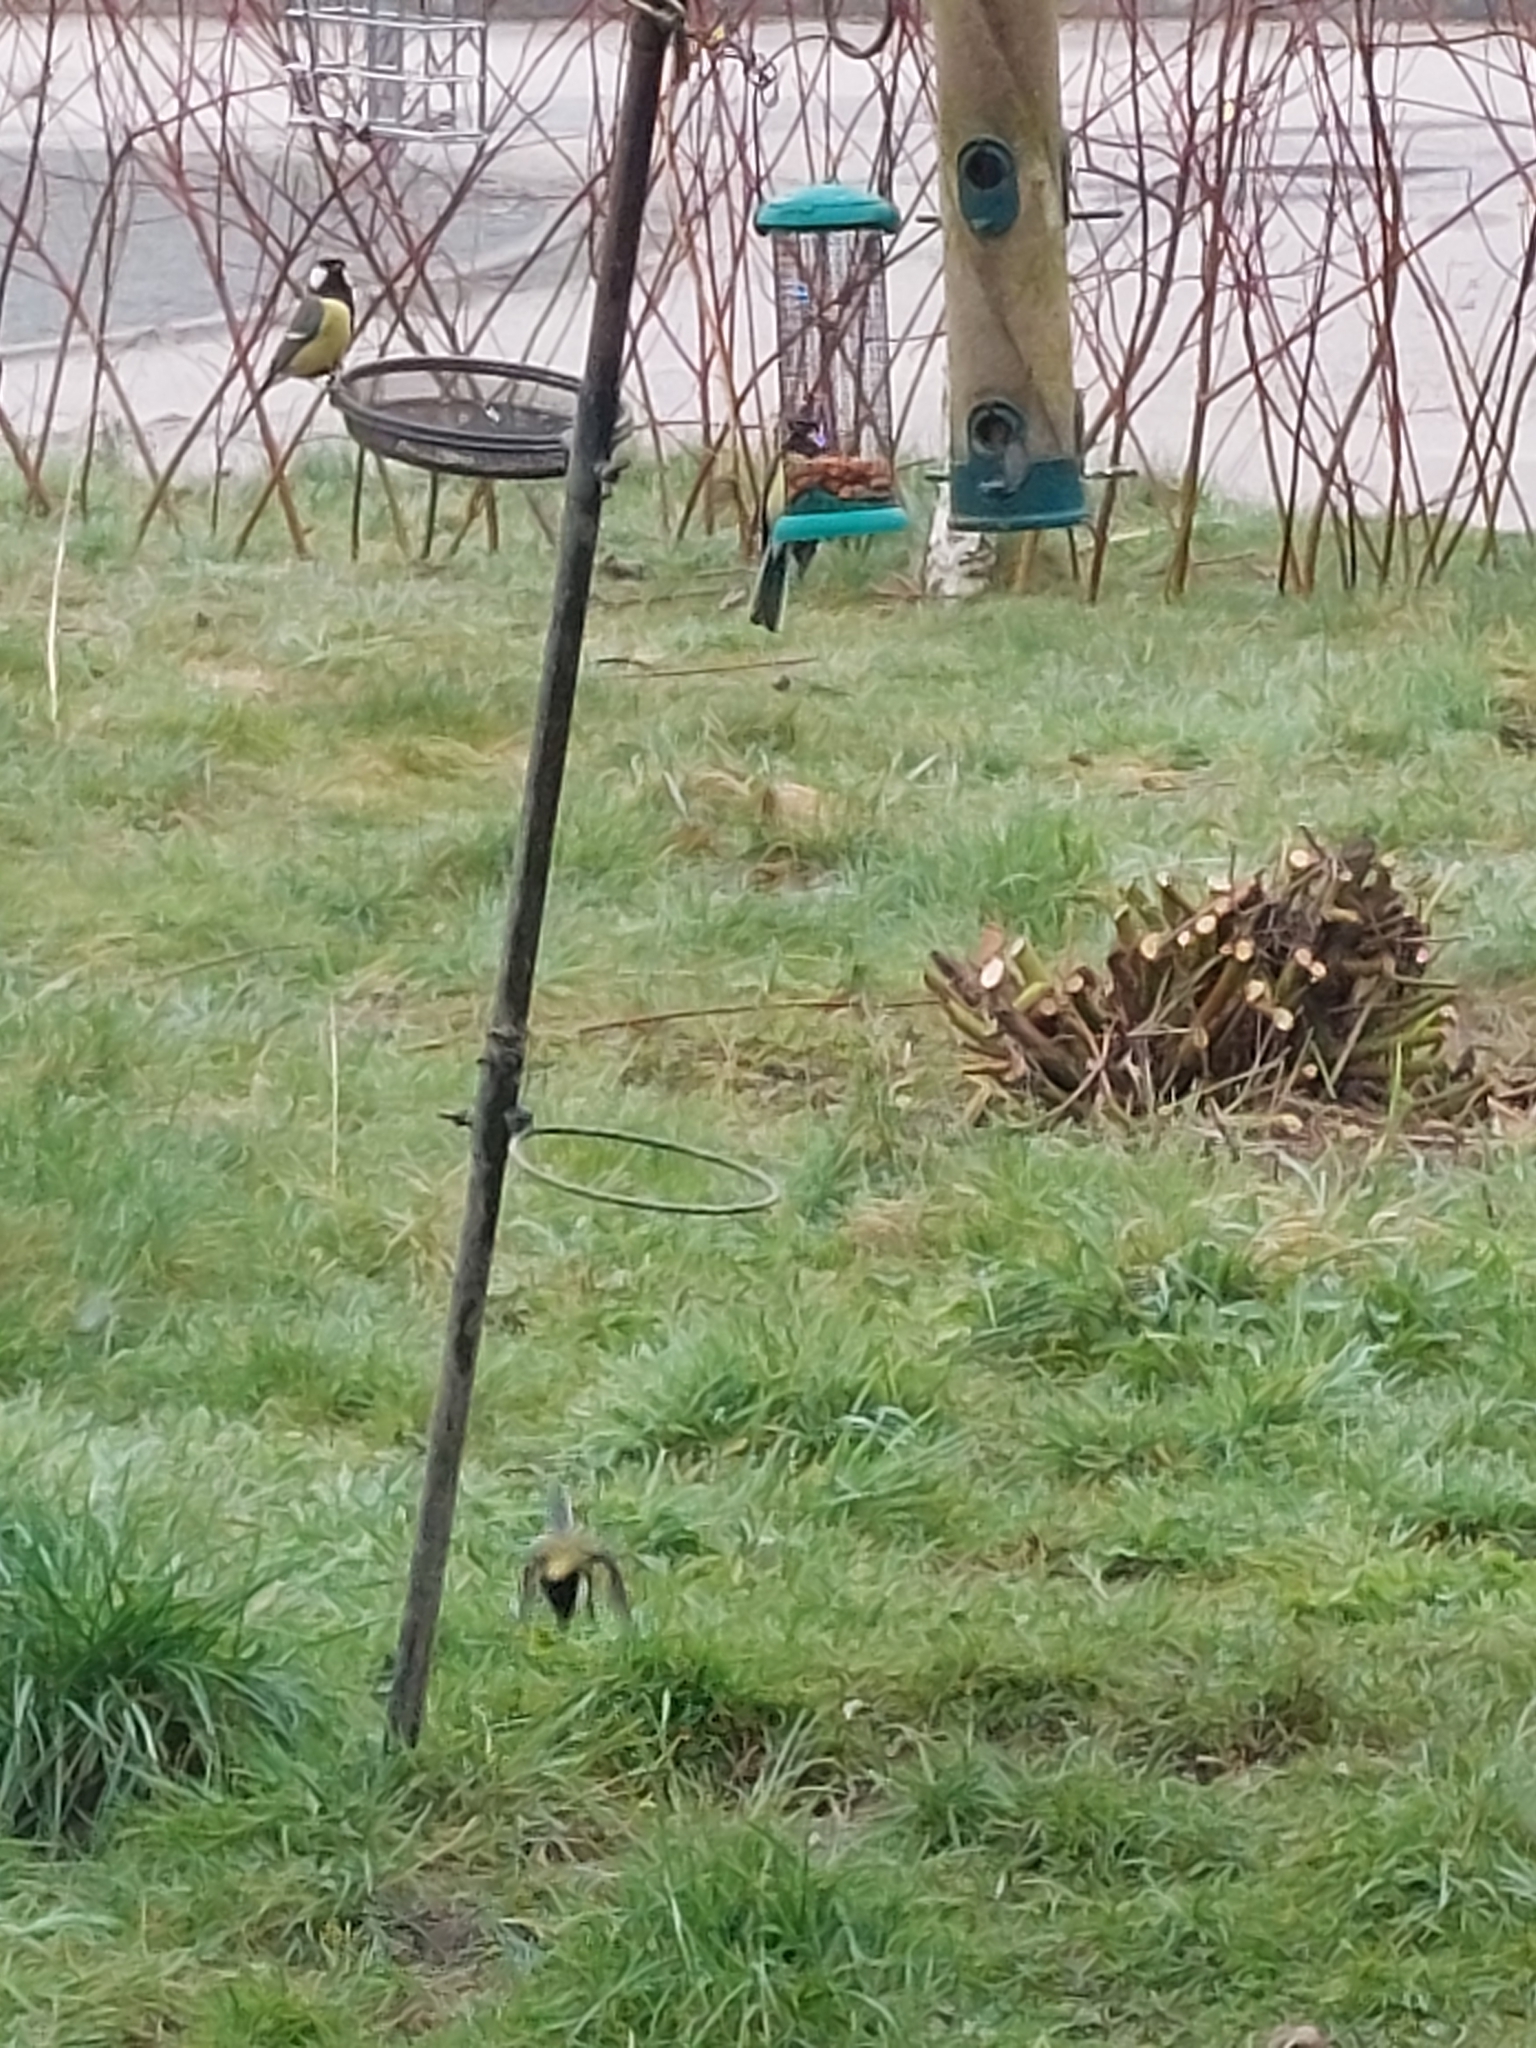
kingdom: Animalia
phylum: Chordata
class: Aves
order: Passeriformes
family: Paridae
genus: Parus
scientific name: Parus major
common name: Great tit
